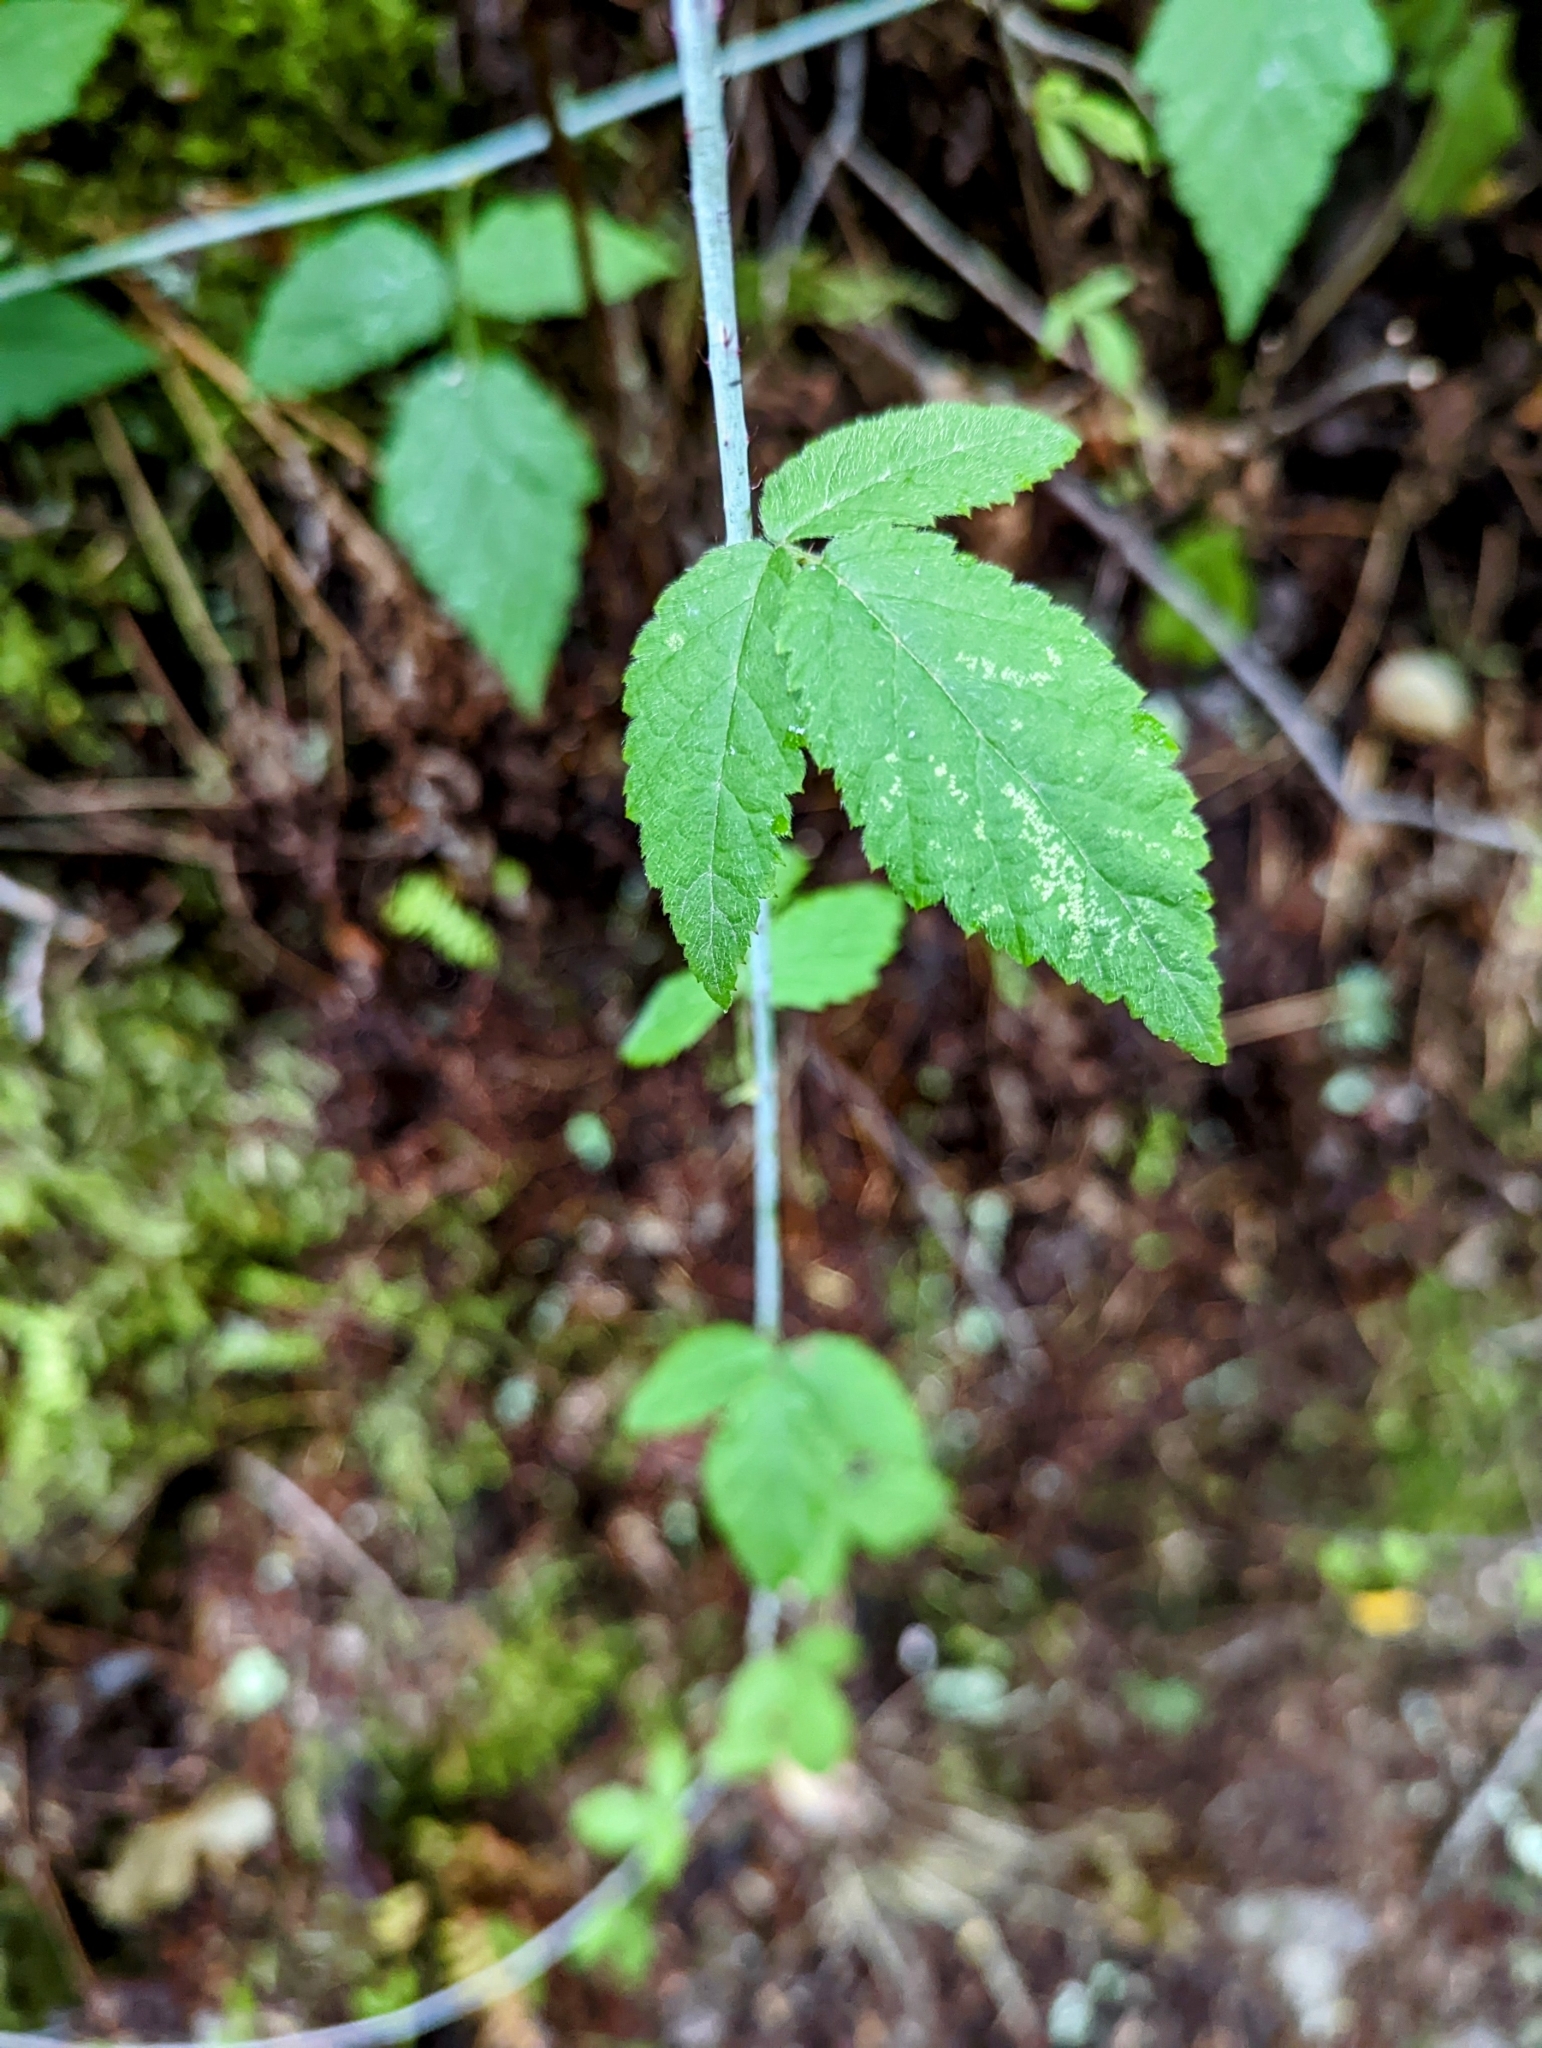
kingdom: Plantae
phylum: Tracheophyta
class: Magnoliopsida
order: Rosales
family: Rosaceae
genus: Rubus
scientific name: Rubus ursinus
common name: Pacific blackberry
